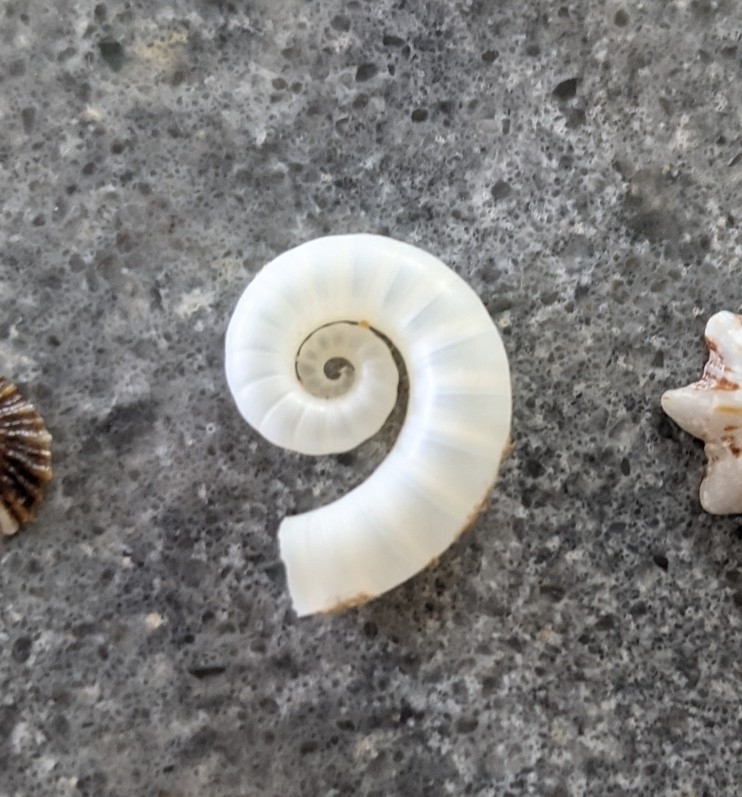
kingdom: Animalia
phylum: Mollusca
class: Cephalopoda
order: Spirulida
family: Spirulidae
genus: Spirula
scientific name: Spirula spirula
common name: Ram's horn squid
